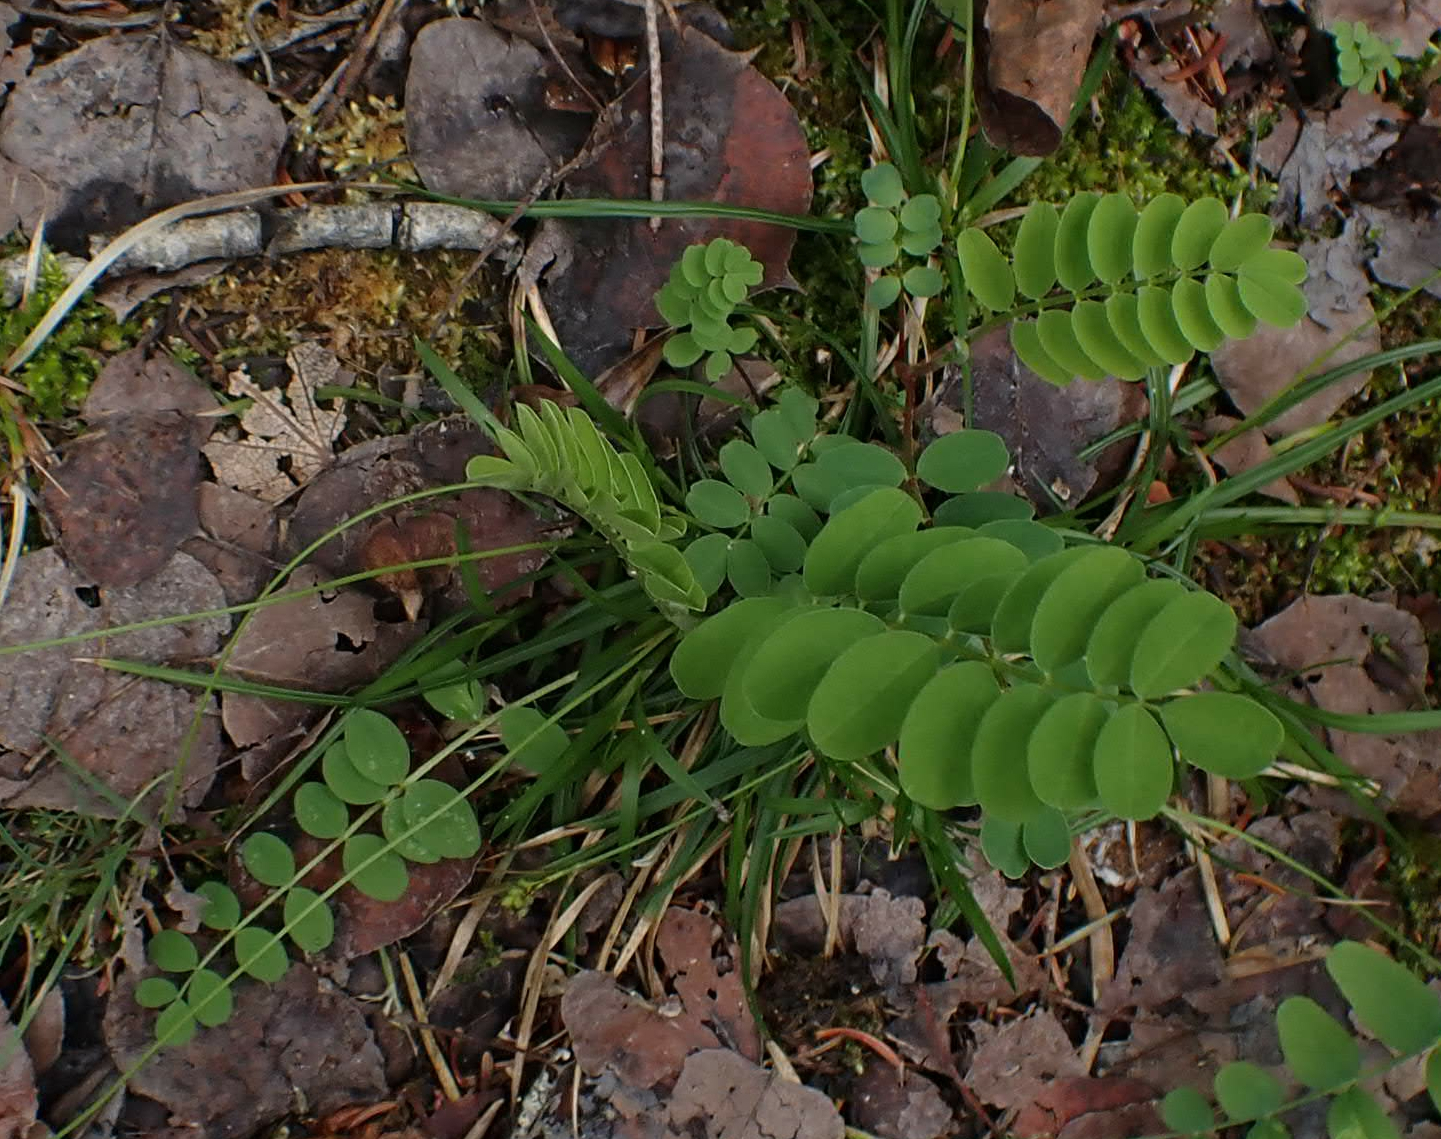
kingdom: Plantae
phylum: Tracheophyta
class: Magnoliopsida
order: Fabales
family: Fabaceae
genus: Astragalus
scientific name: Astragalus canadensis
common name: Canada milk-vetch
